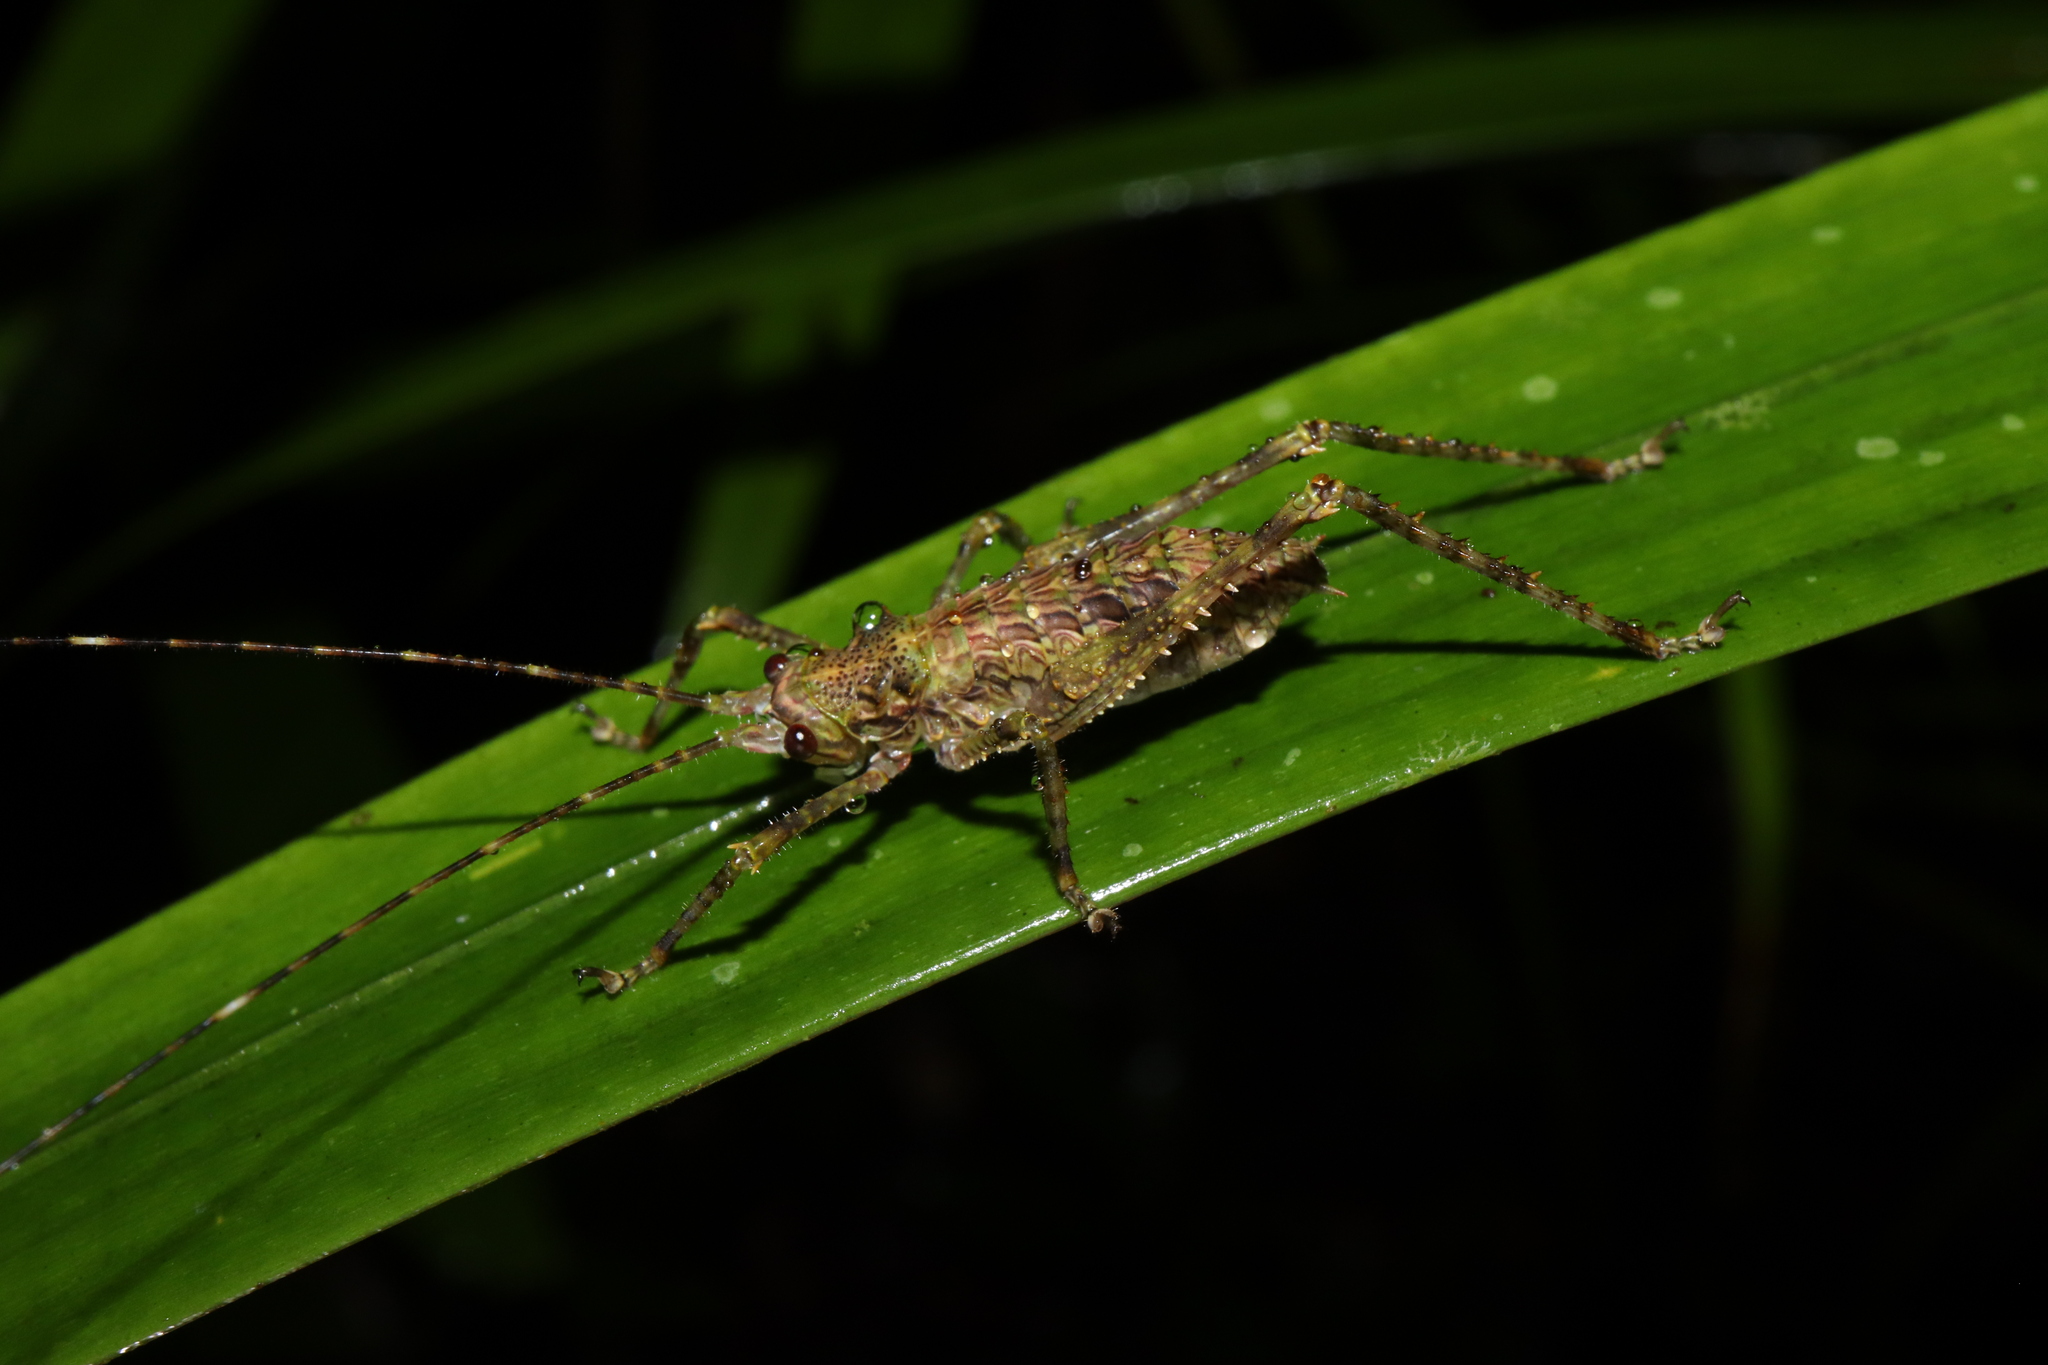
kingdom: Animalia
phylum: Arthropoda
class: Insecta
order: Orthoptera
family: Tettigoniidae
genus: Phricta
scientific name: Phricta spinosa
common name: Giant spiny forest katydid
